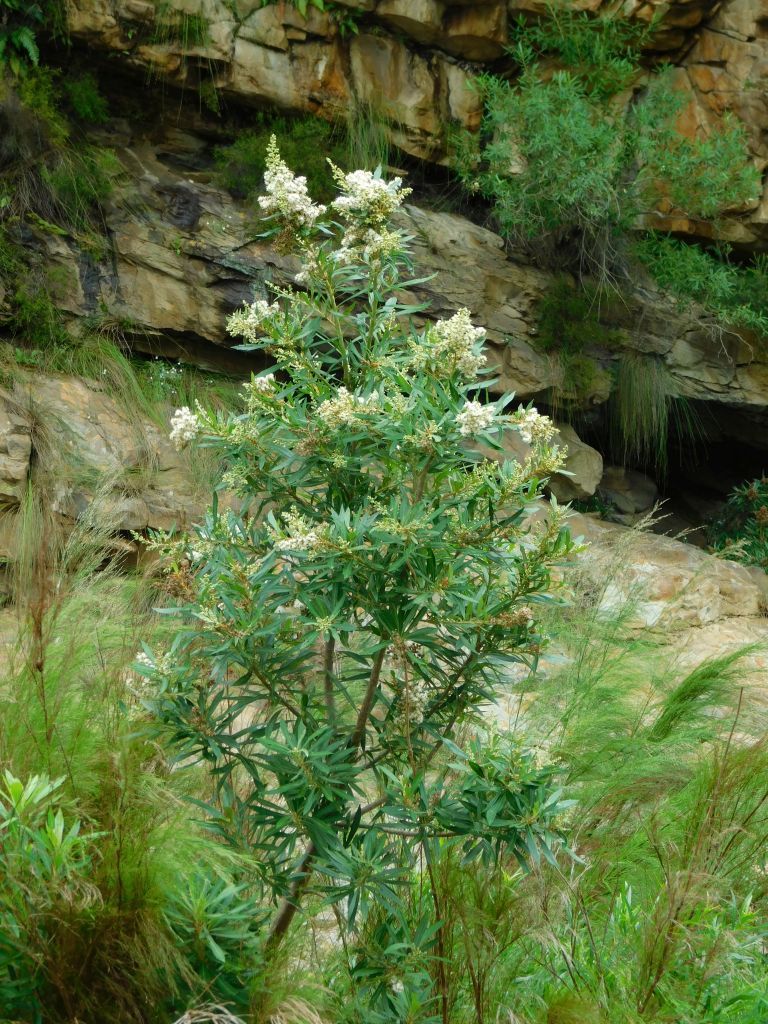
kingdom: Plantae
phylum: Tracheophyta
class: Magnoliopsida
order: Asterales
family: Asteraceae
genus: Brachylaena
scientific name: Brachylaena neriifolia
